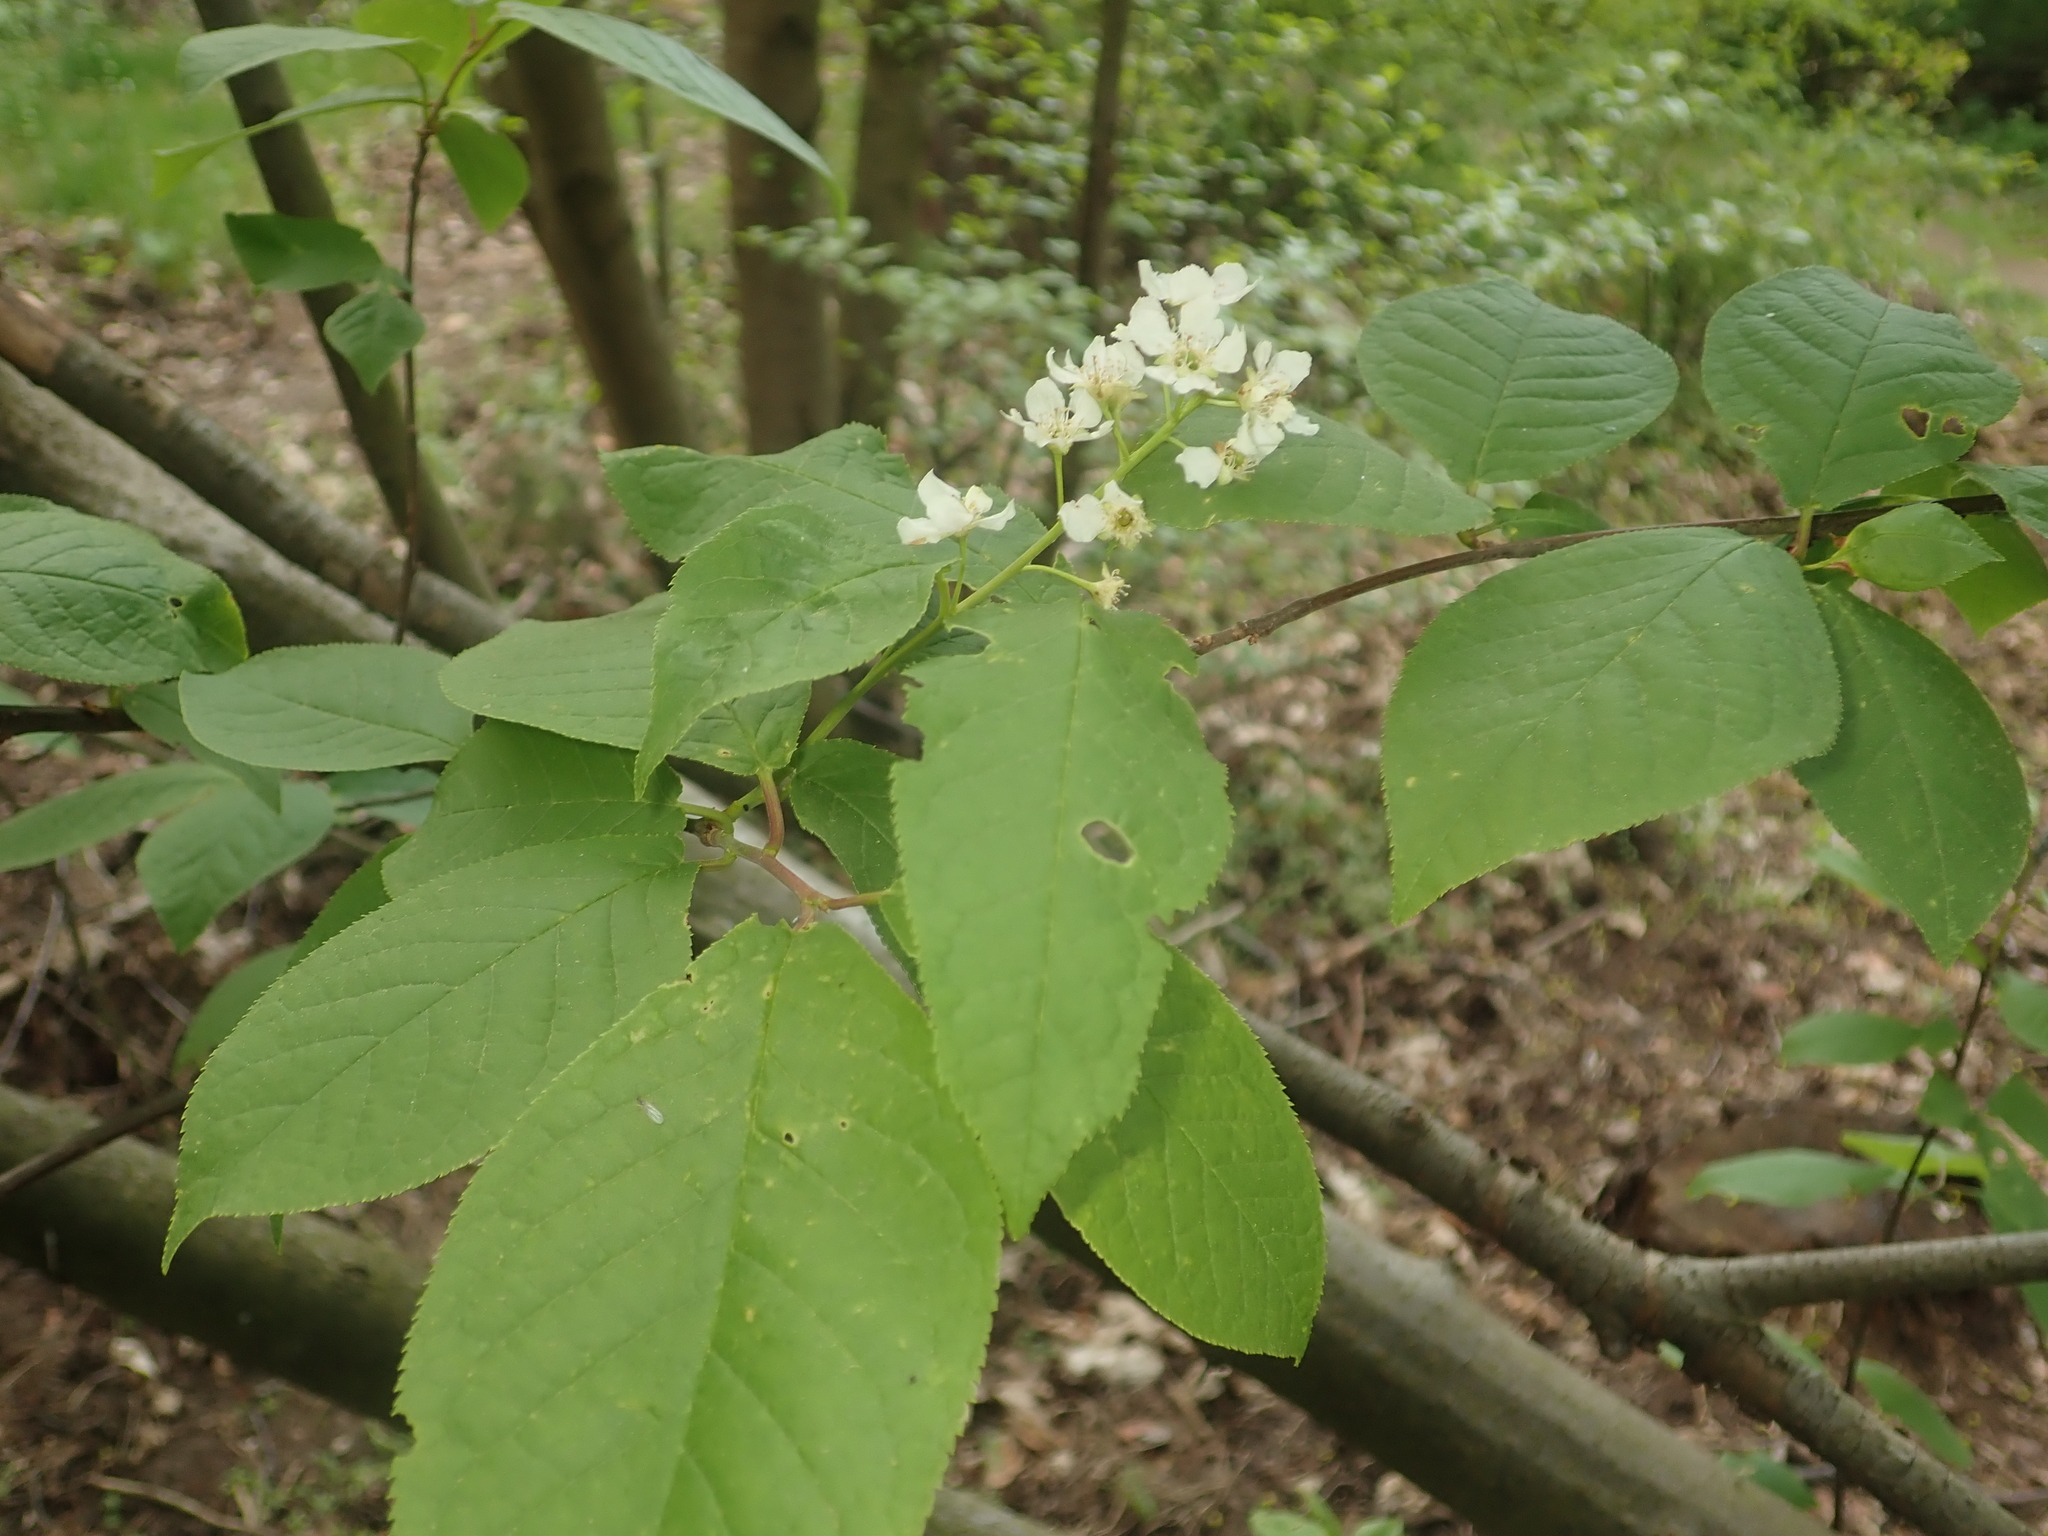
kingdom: Plantae
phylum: Tracheophyta
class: Magnoliopsida
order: Rosales
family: Rosaceae
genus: Prunus
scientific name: Prunus padus
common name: Bird cherry
